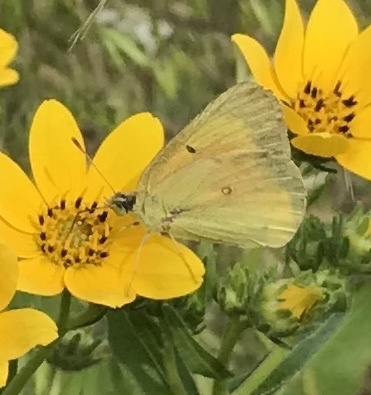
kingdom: Animalia
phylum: Arthropoda
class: Insecta
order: Lepidoptera
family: Pieridae
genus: Colias
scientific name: Colias eurytheme
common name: Alfalfa butterfly
